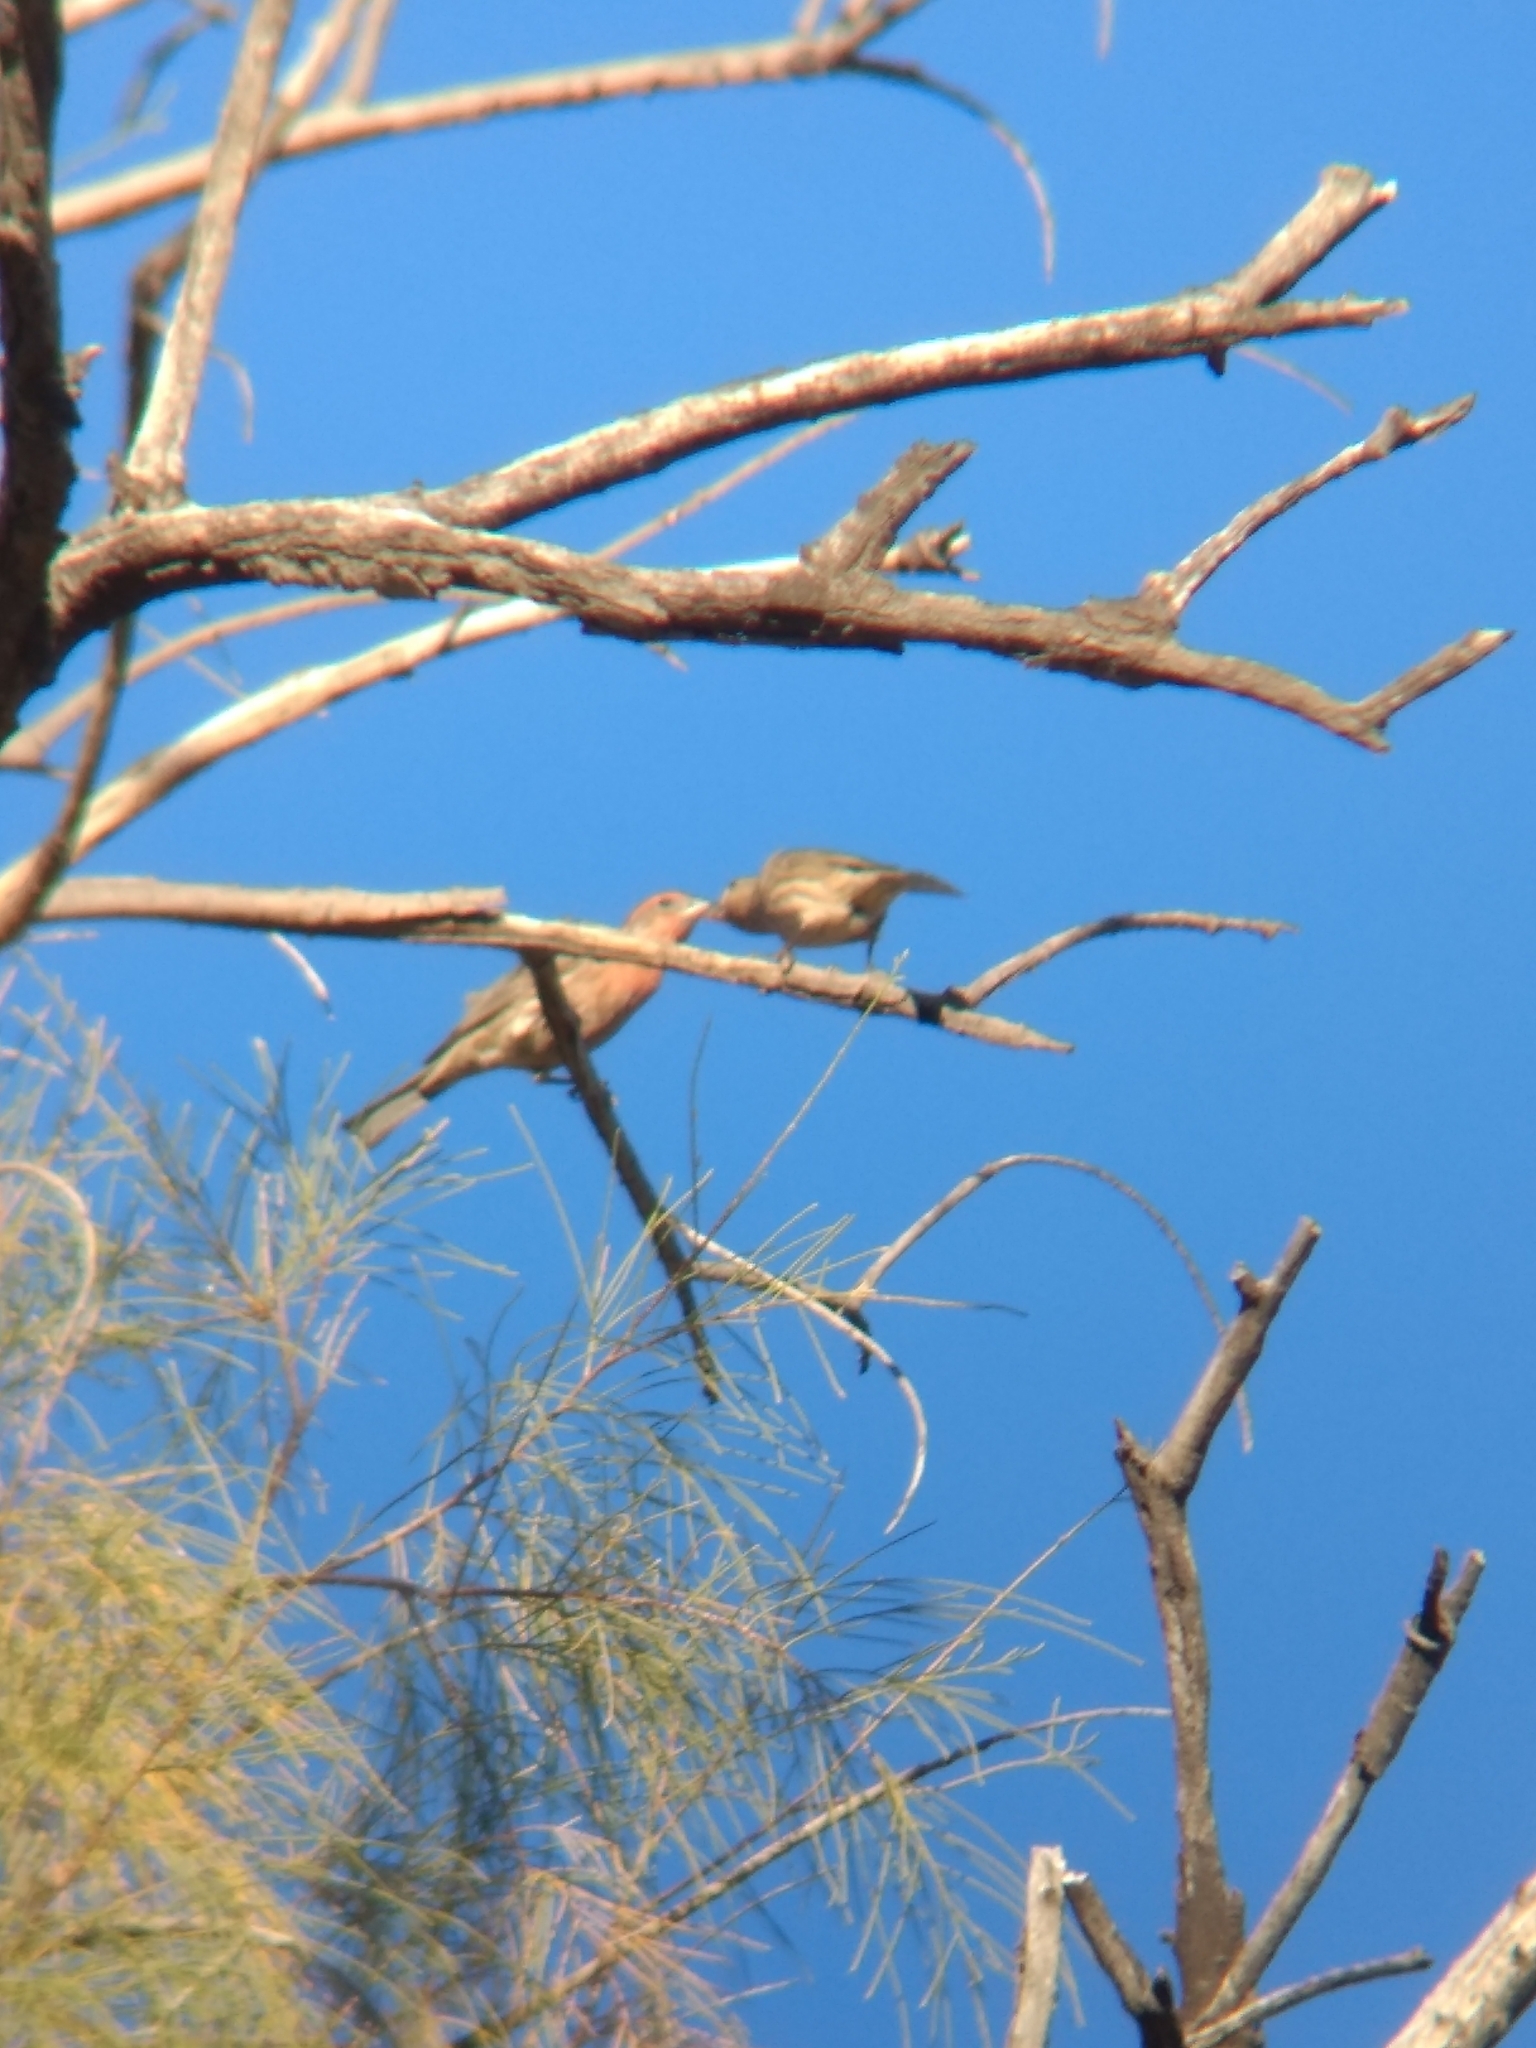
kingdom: Animalia
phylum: Chordata
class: Aves
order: Passeriformes
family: Fringillidae
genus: Haemorhous
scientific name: Haemorhous mexicanus
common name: House finch
